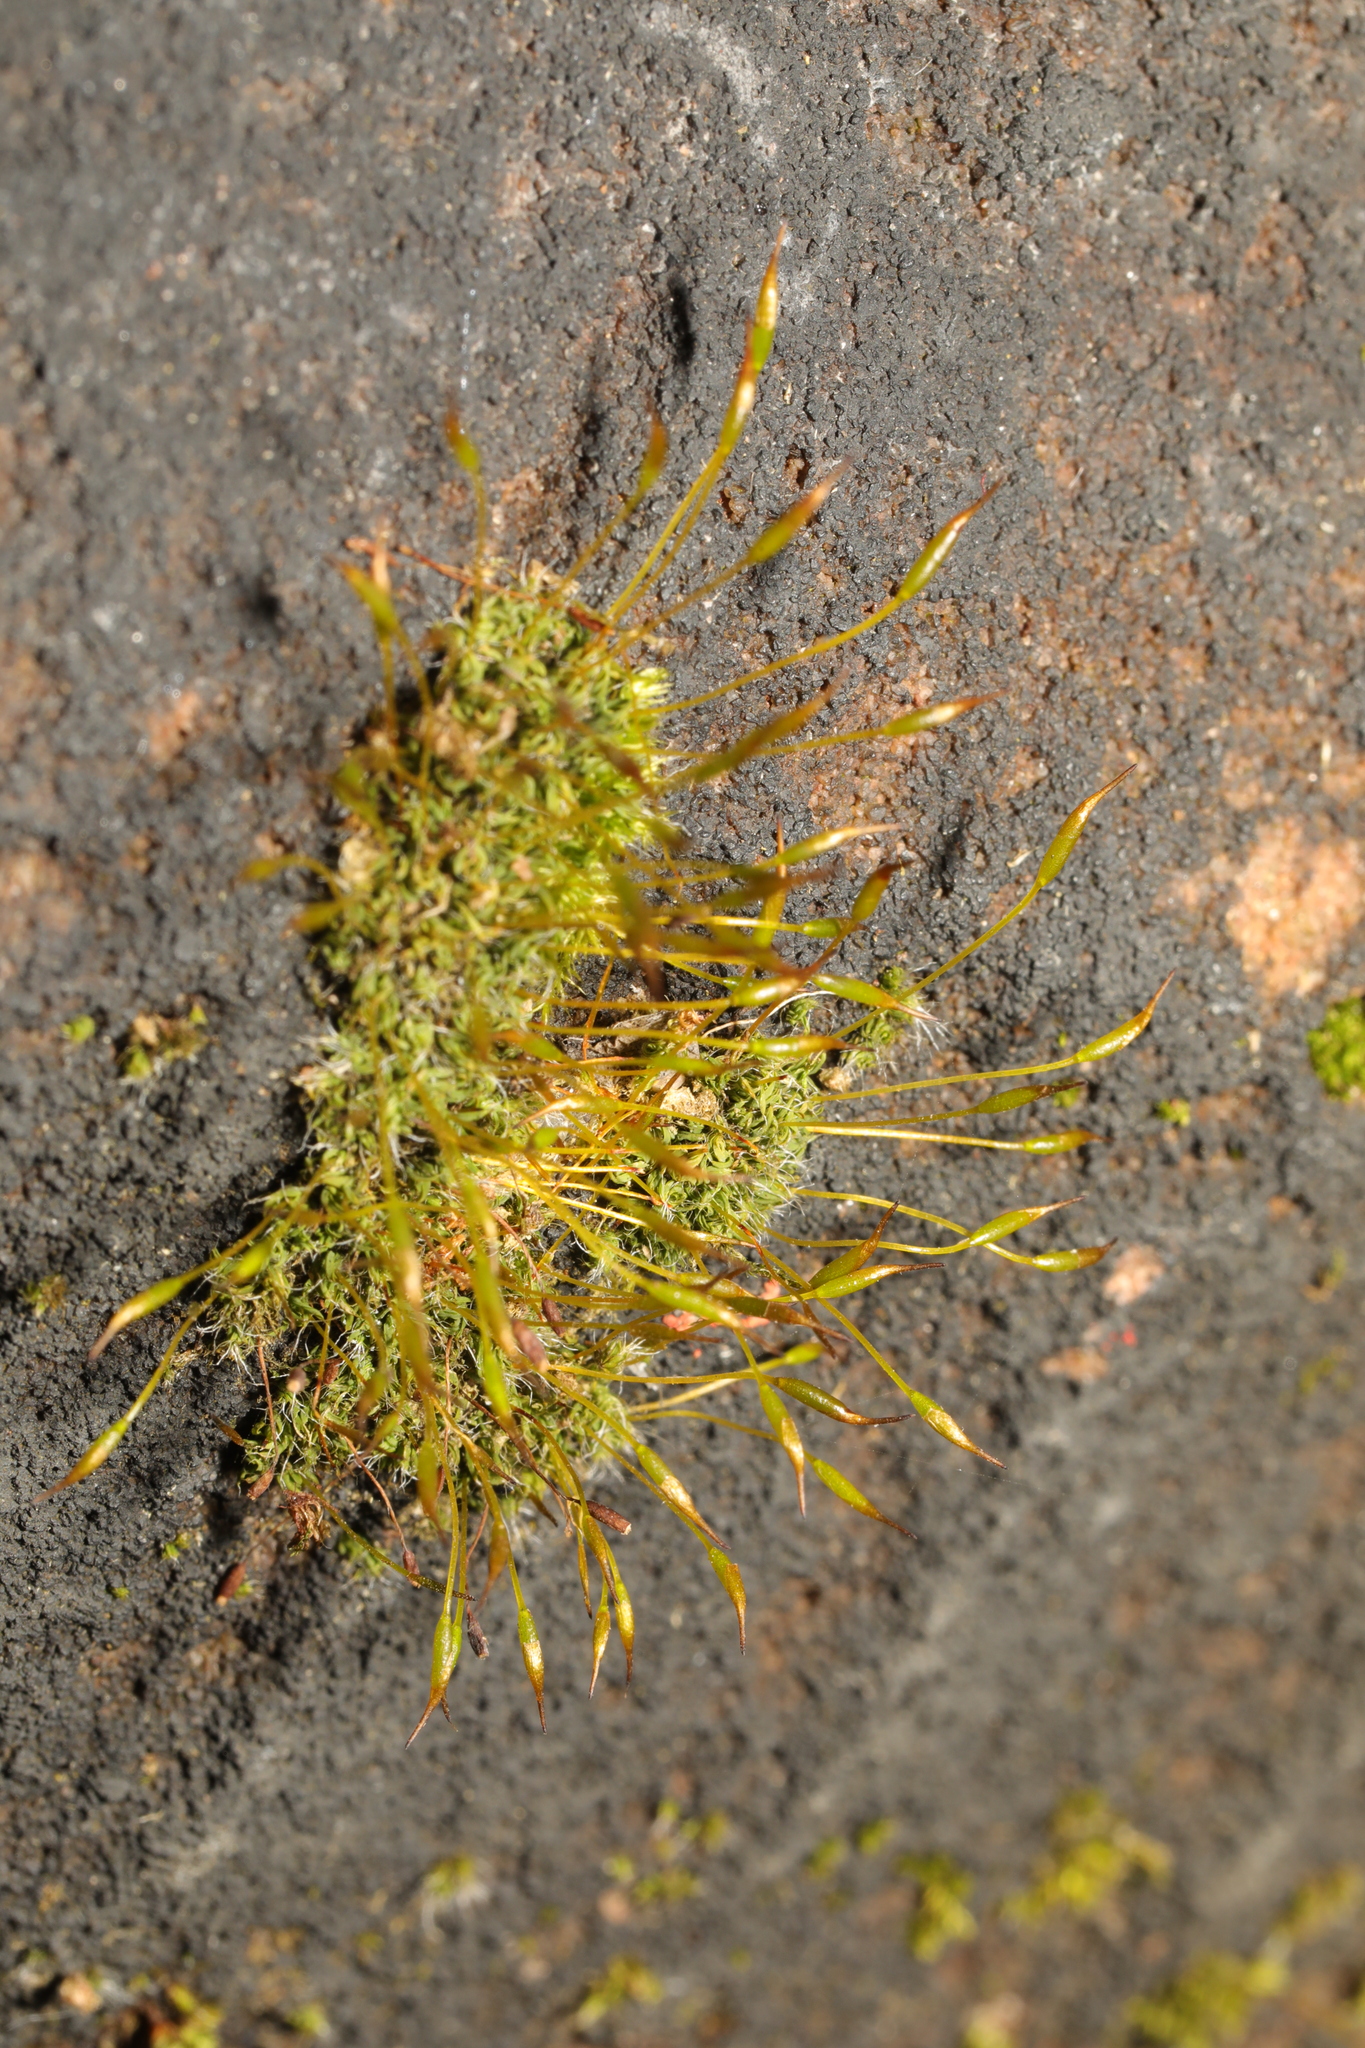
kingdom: Plantae
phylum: Bryophyta
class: Bryopsida
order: Pottiales
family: Pottiaceae
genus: Tortula
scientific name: Tortula muralis
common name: Wall screw-moss
